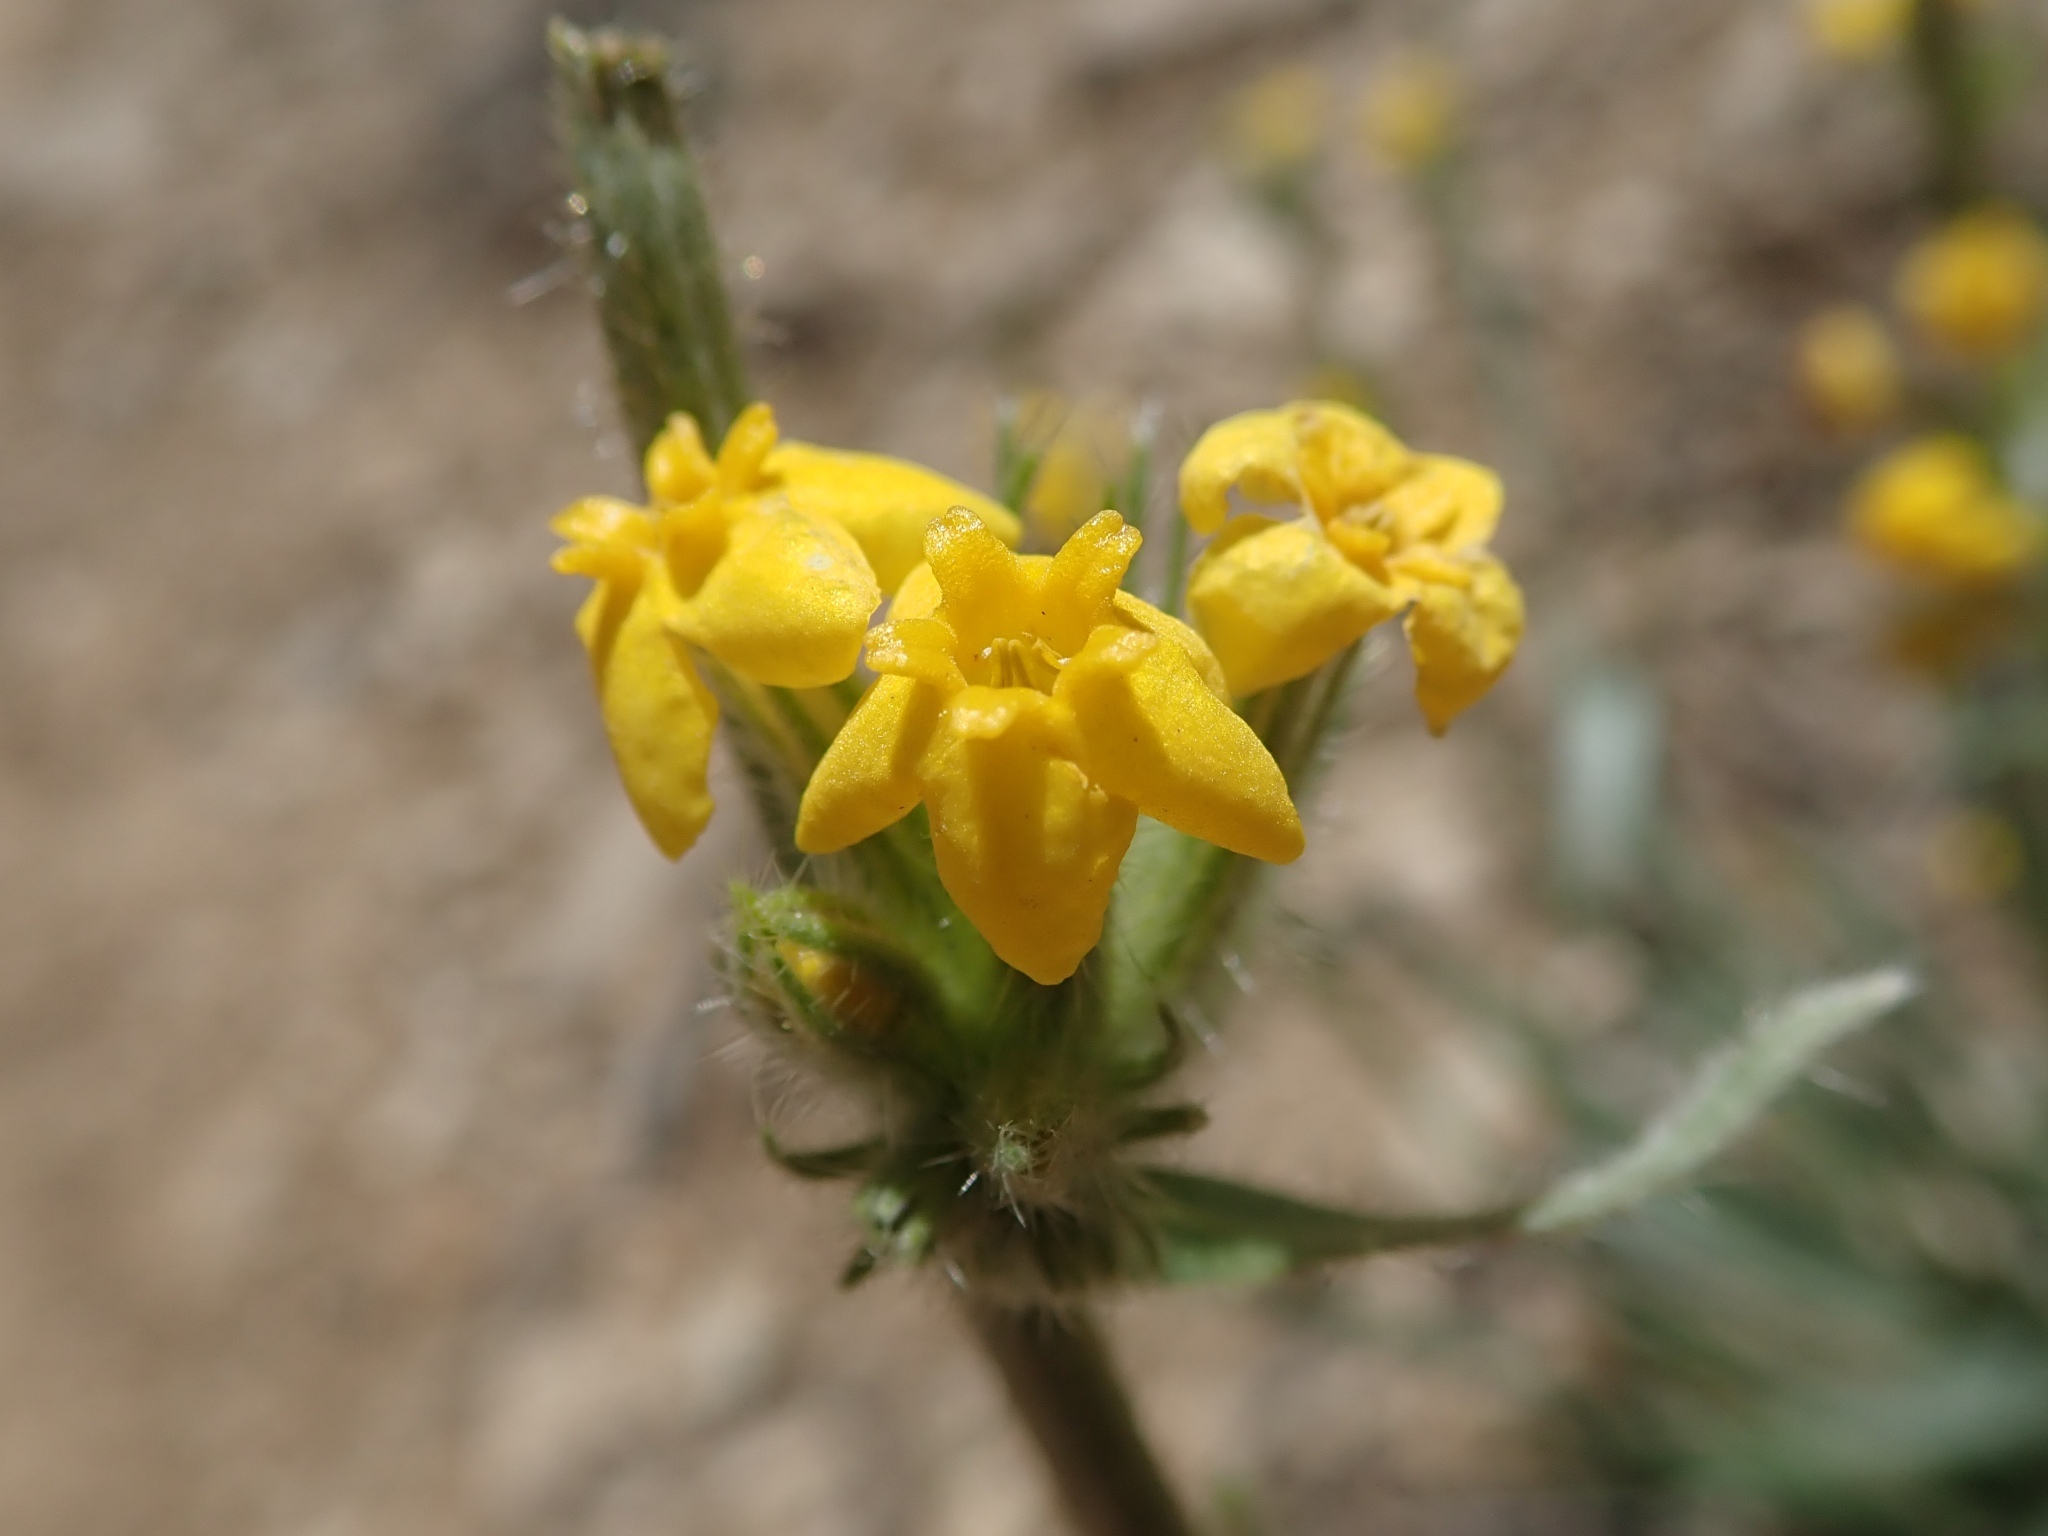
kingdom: Plantae
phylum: Tracheophyta
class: Magnoliopsida
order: Boraginales
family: Boraginaceae
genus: Oreocarya
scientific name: Oreocarya confertiflora
